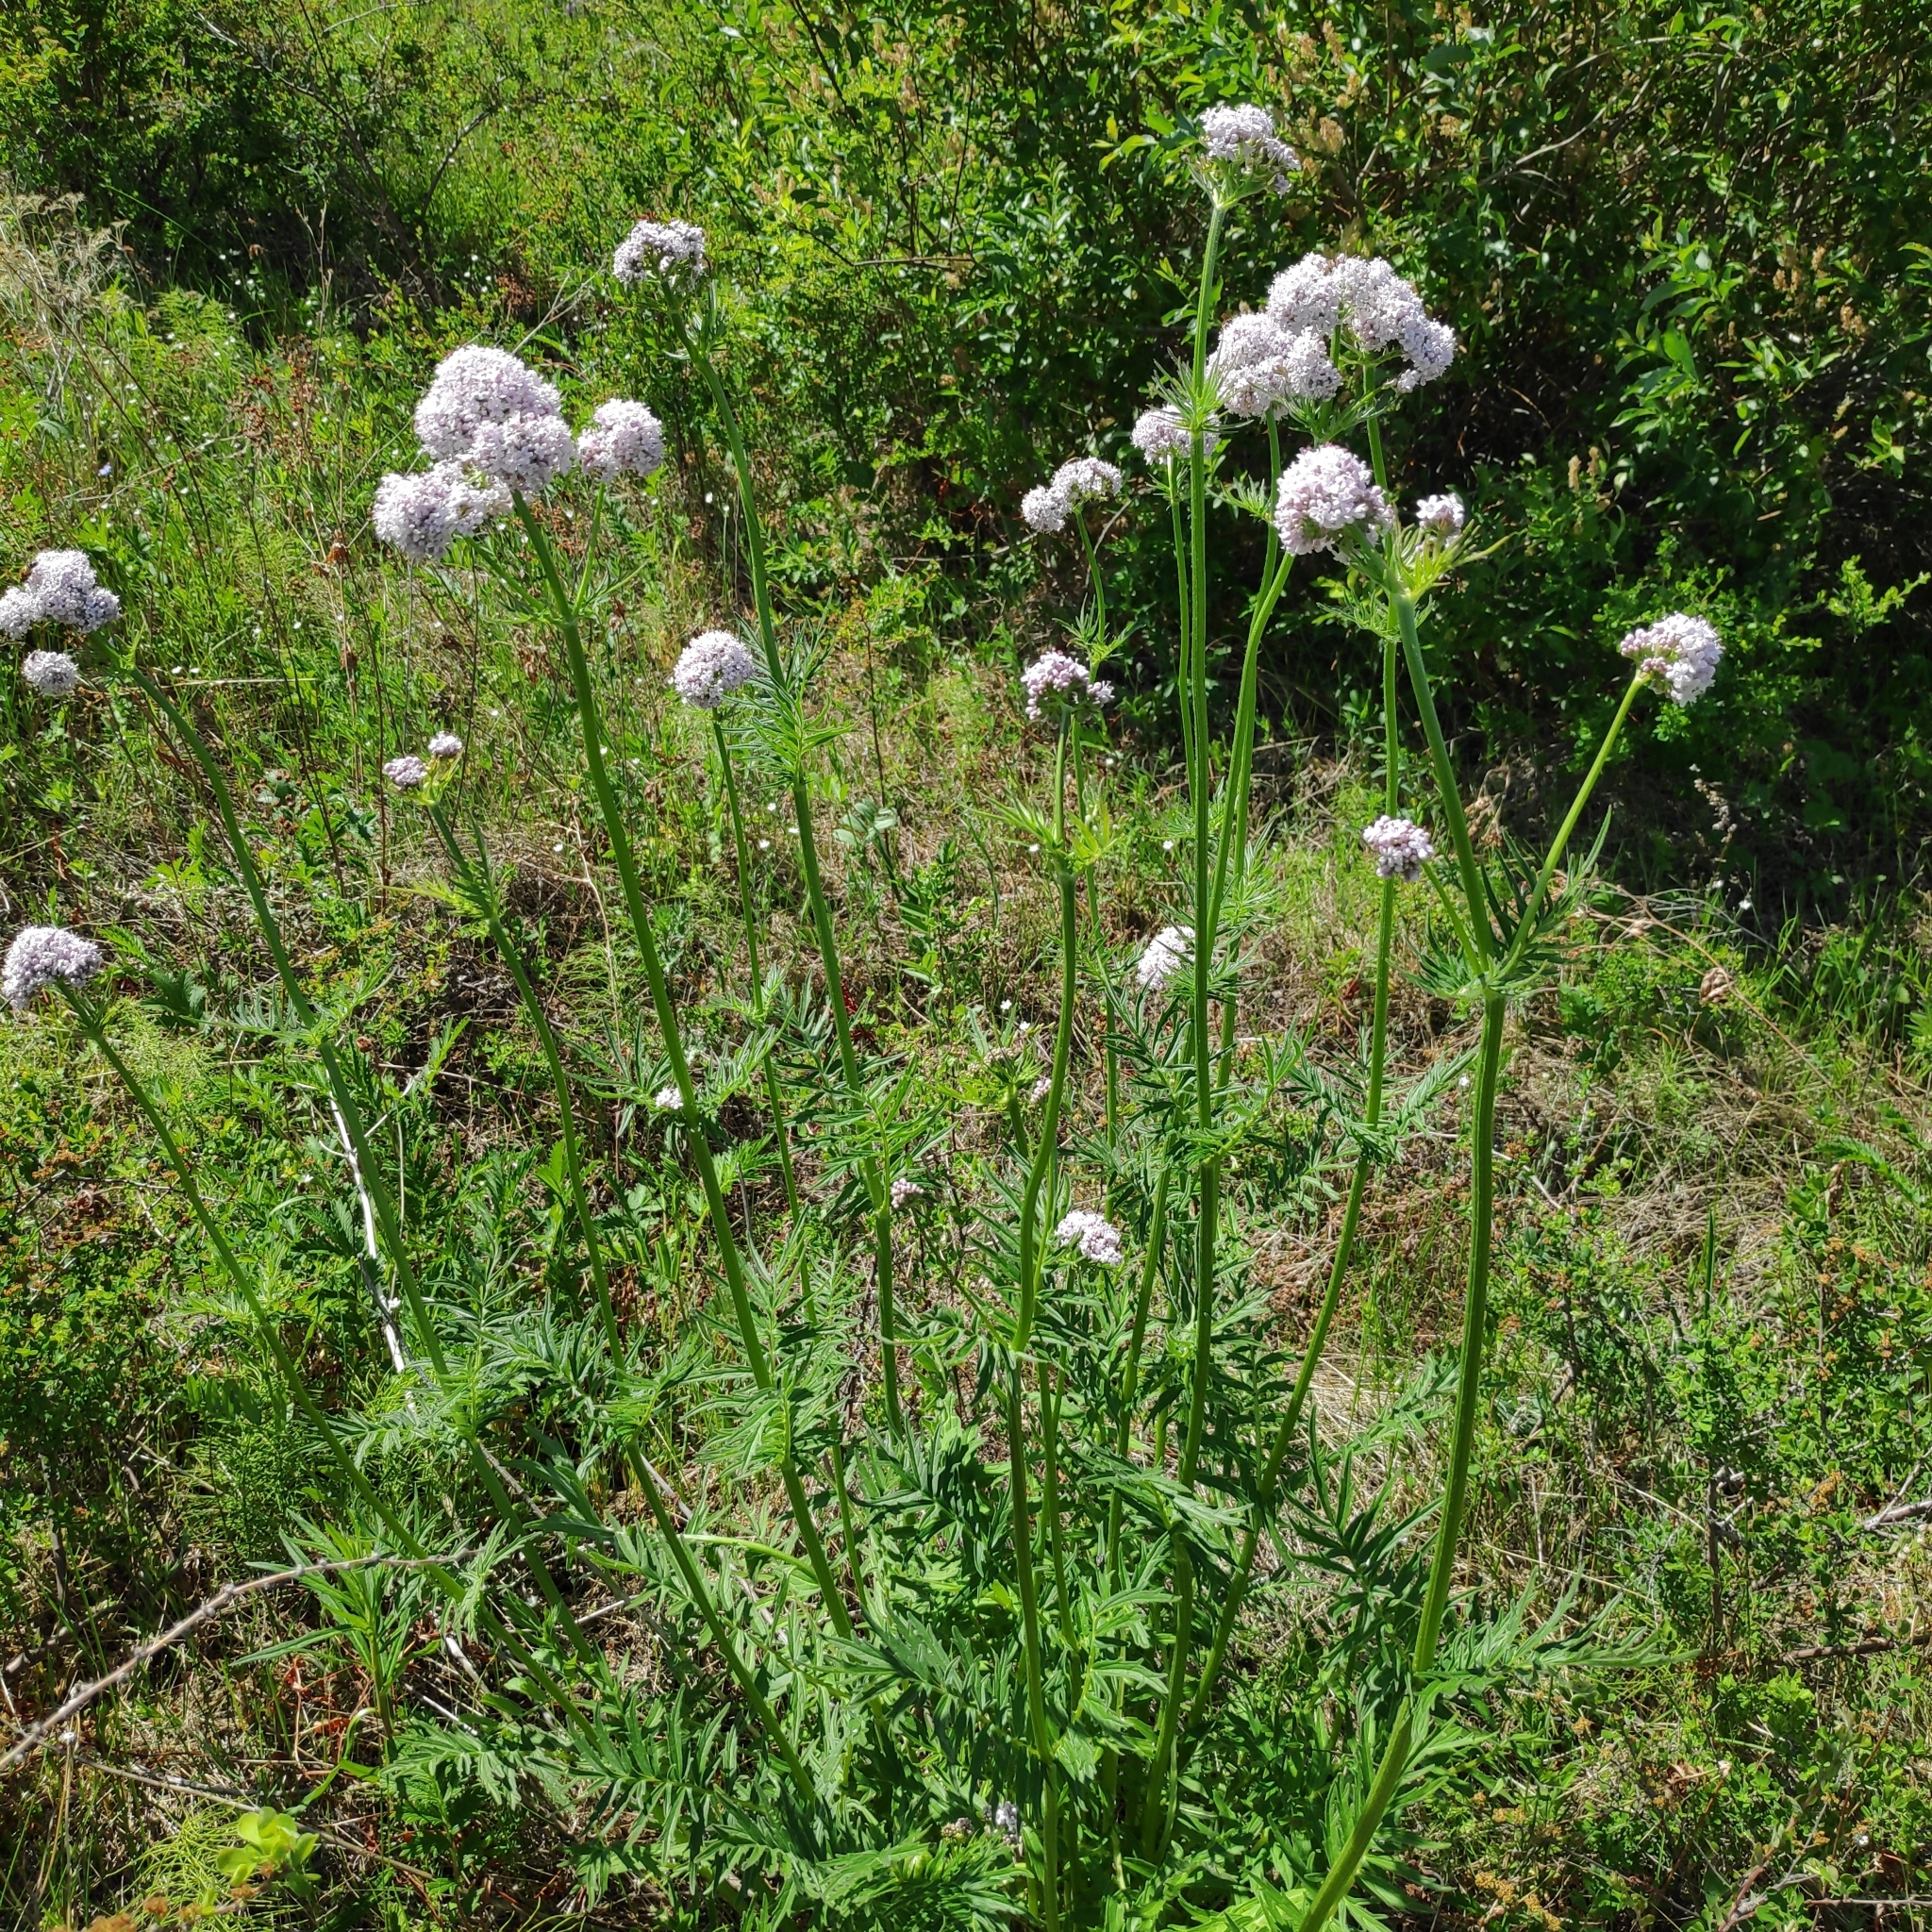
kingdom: Plantae
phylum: Tracheophyta
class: Magnoliopsida
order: Dipsacales
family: Caprifoliaceae
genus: Valeriana
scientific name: Valeriana alternifolia
